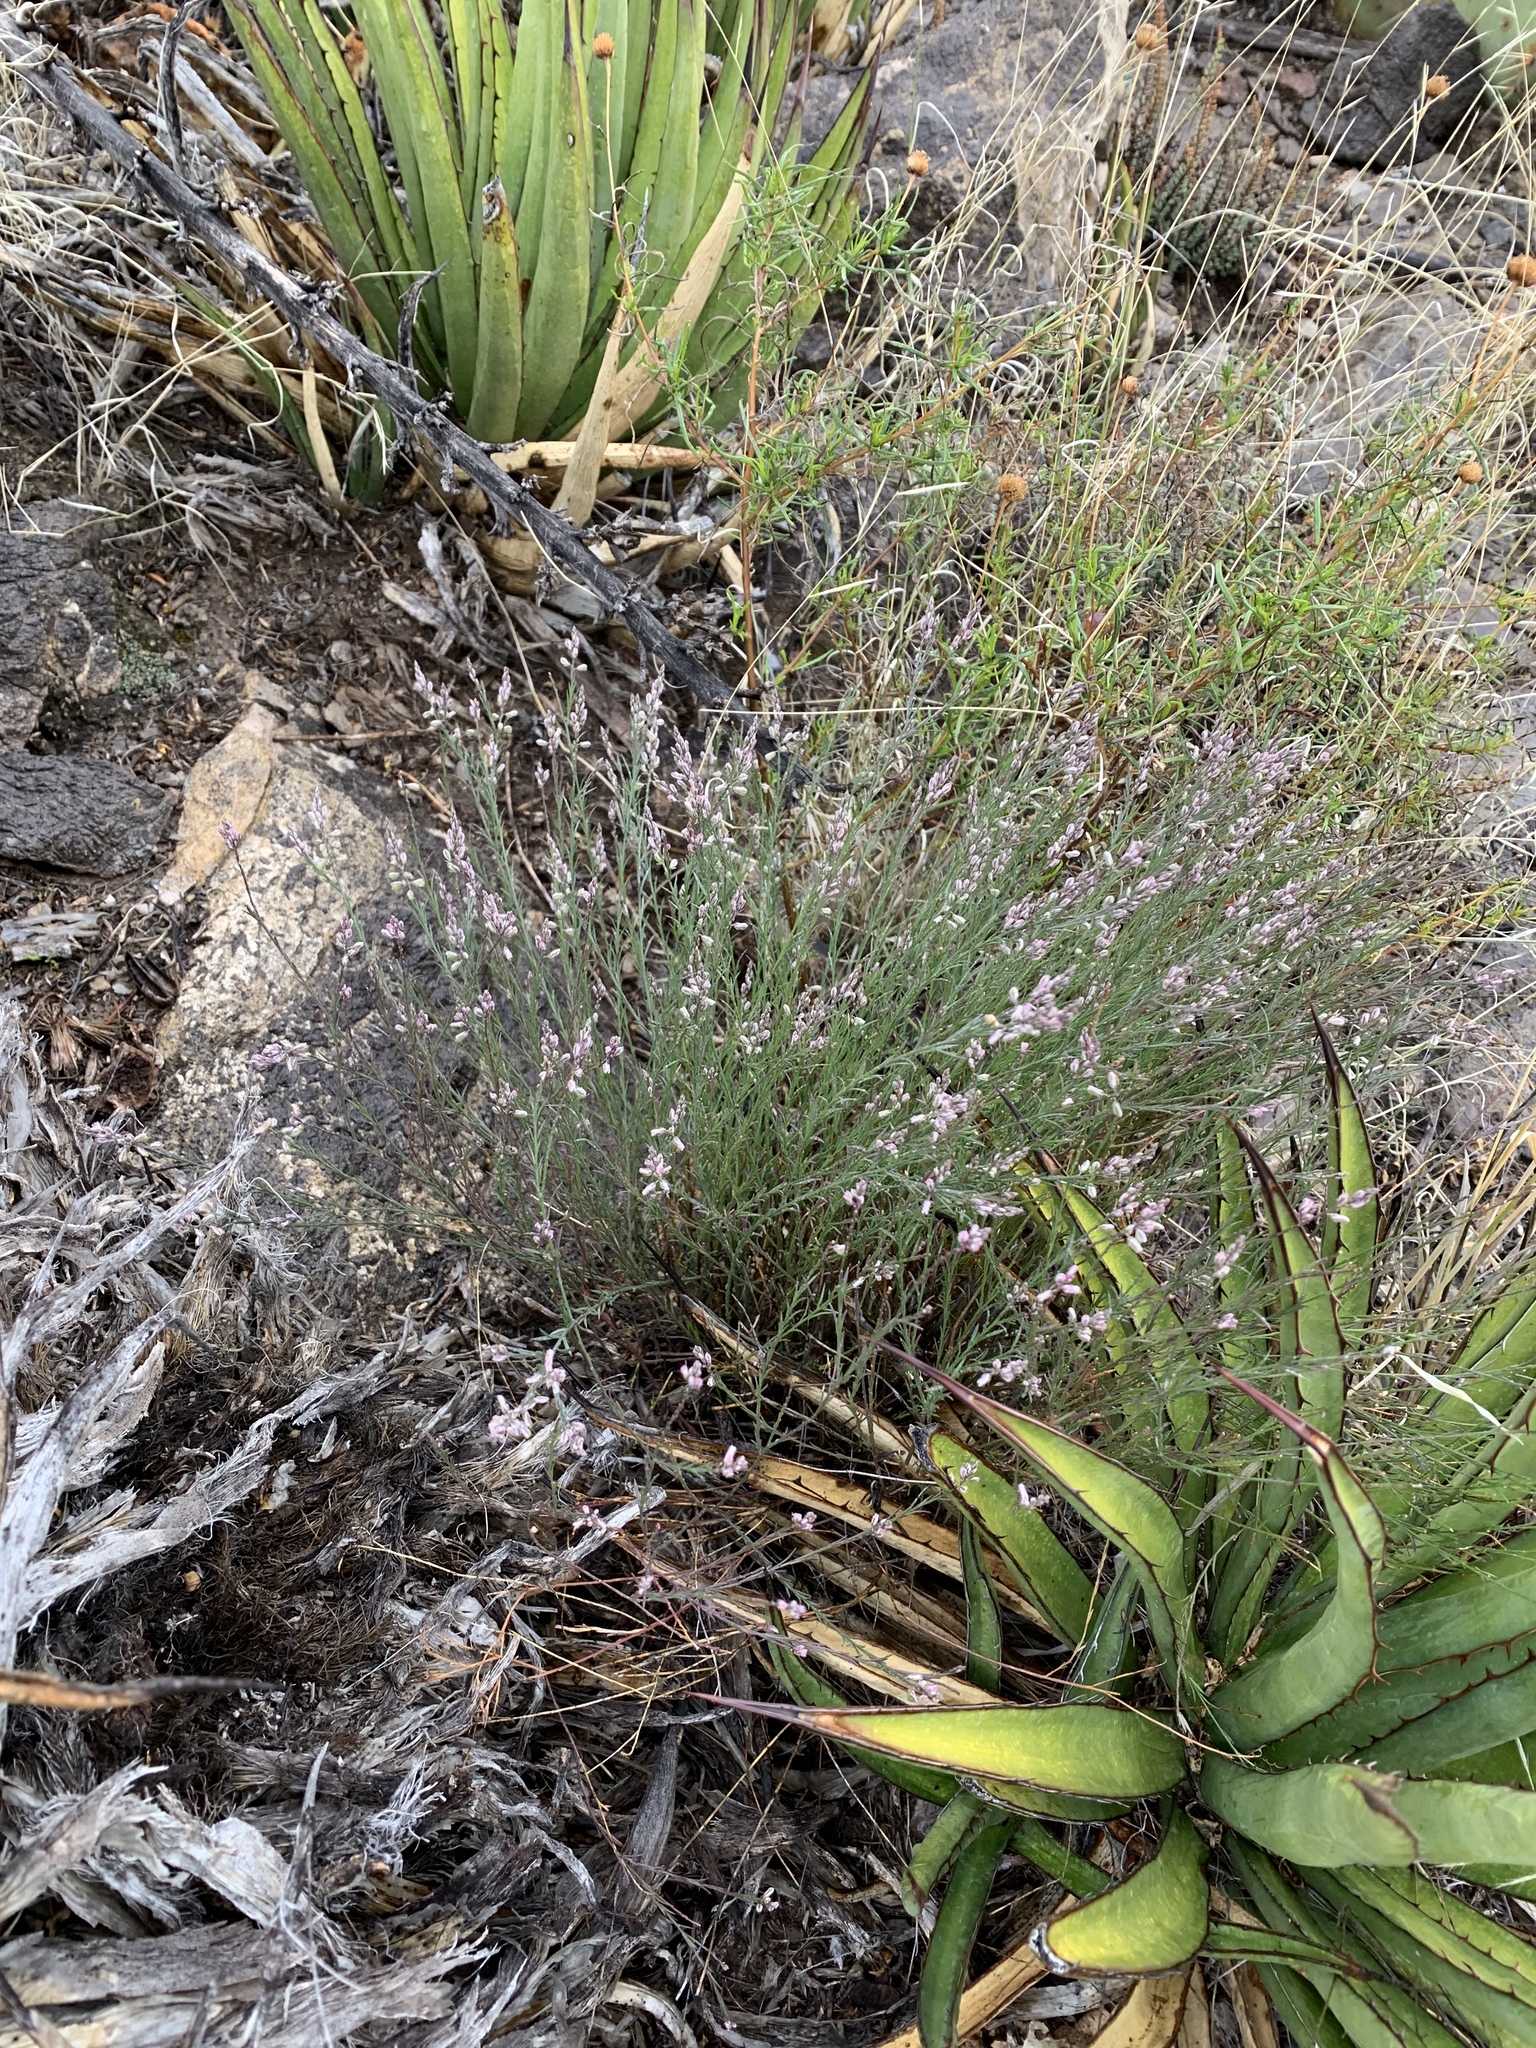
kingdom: Plantae
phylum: Tracheophyta
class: Magnoliopsida
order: Fabales
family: Polygalaceae
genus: Polygala
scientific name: Polygala scoparioides
